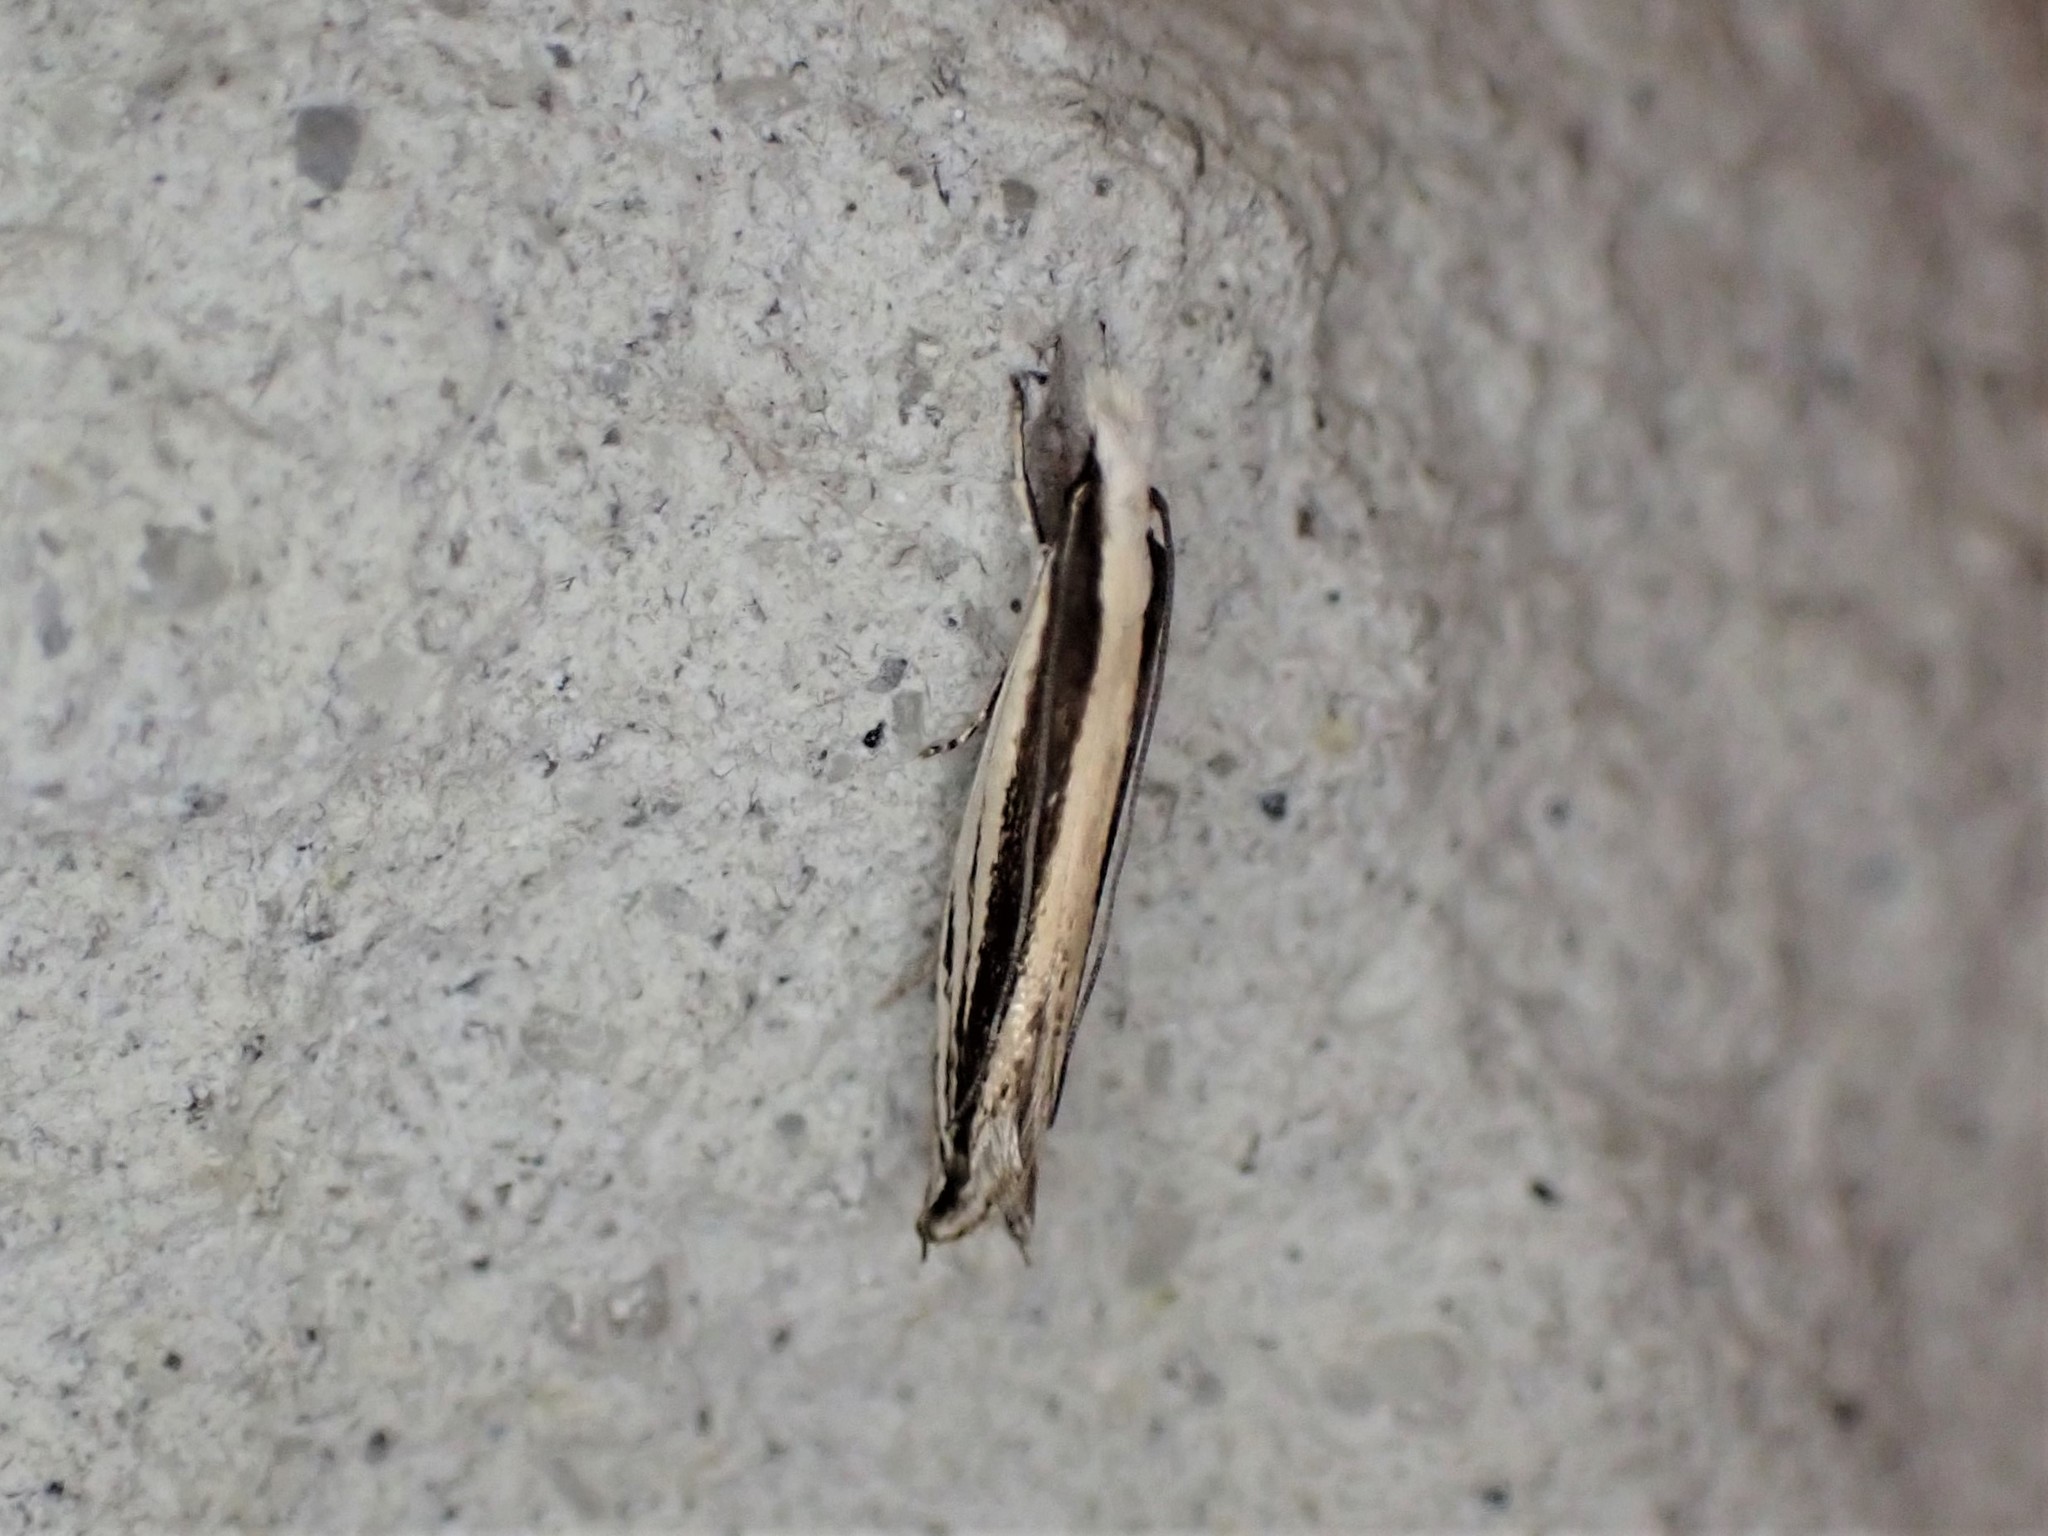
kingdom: Animalia
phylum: Arthropoda
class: Insecta
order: Lepidoptera
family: Tineidae
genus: Erechthias
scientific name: Erechthias stilbella
